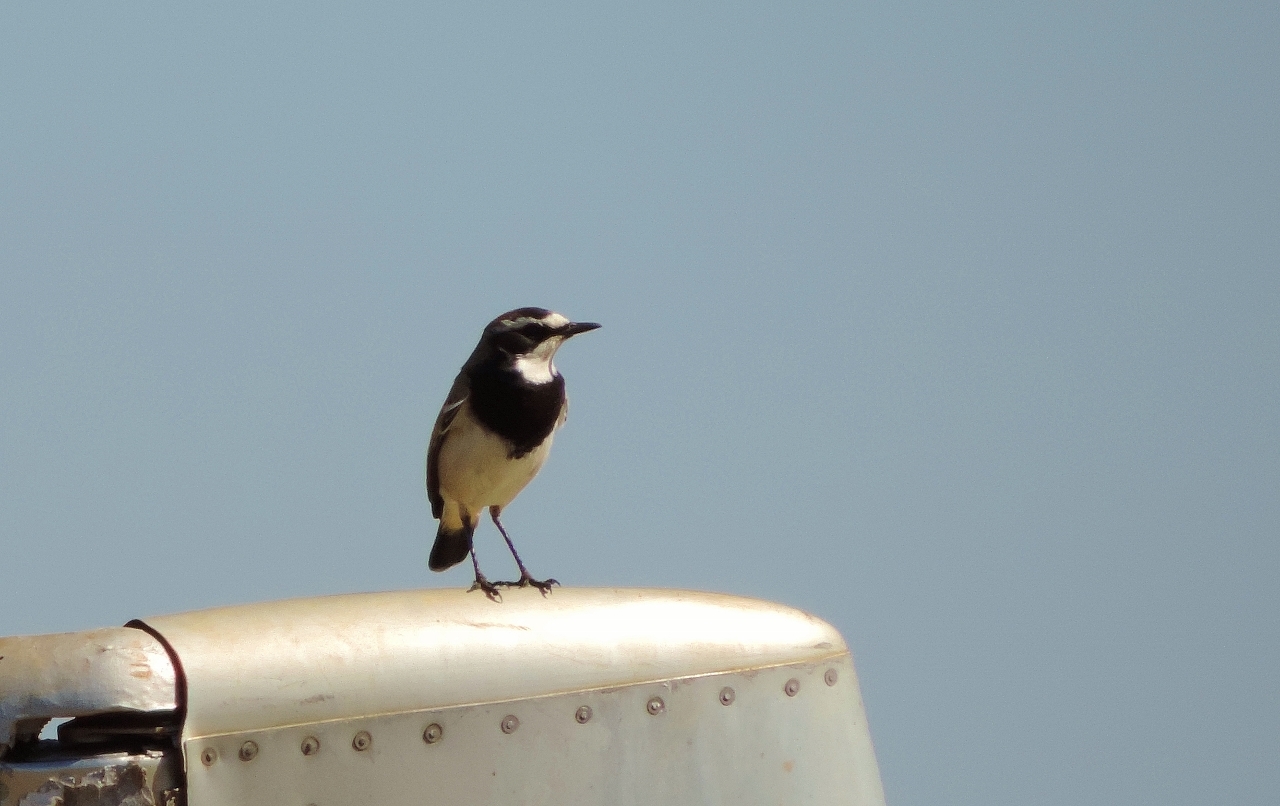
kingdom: Animalia
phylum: Chordata
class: Aves
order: Passeriformes
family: Muscicapidae
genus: Oenanthe
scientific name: Oenanthe pileata
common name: Capped wheatear
